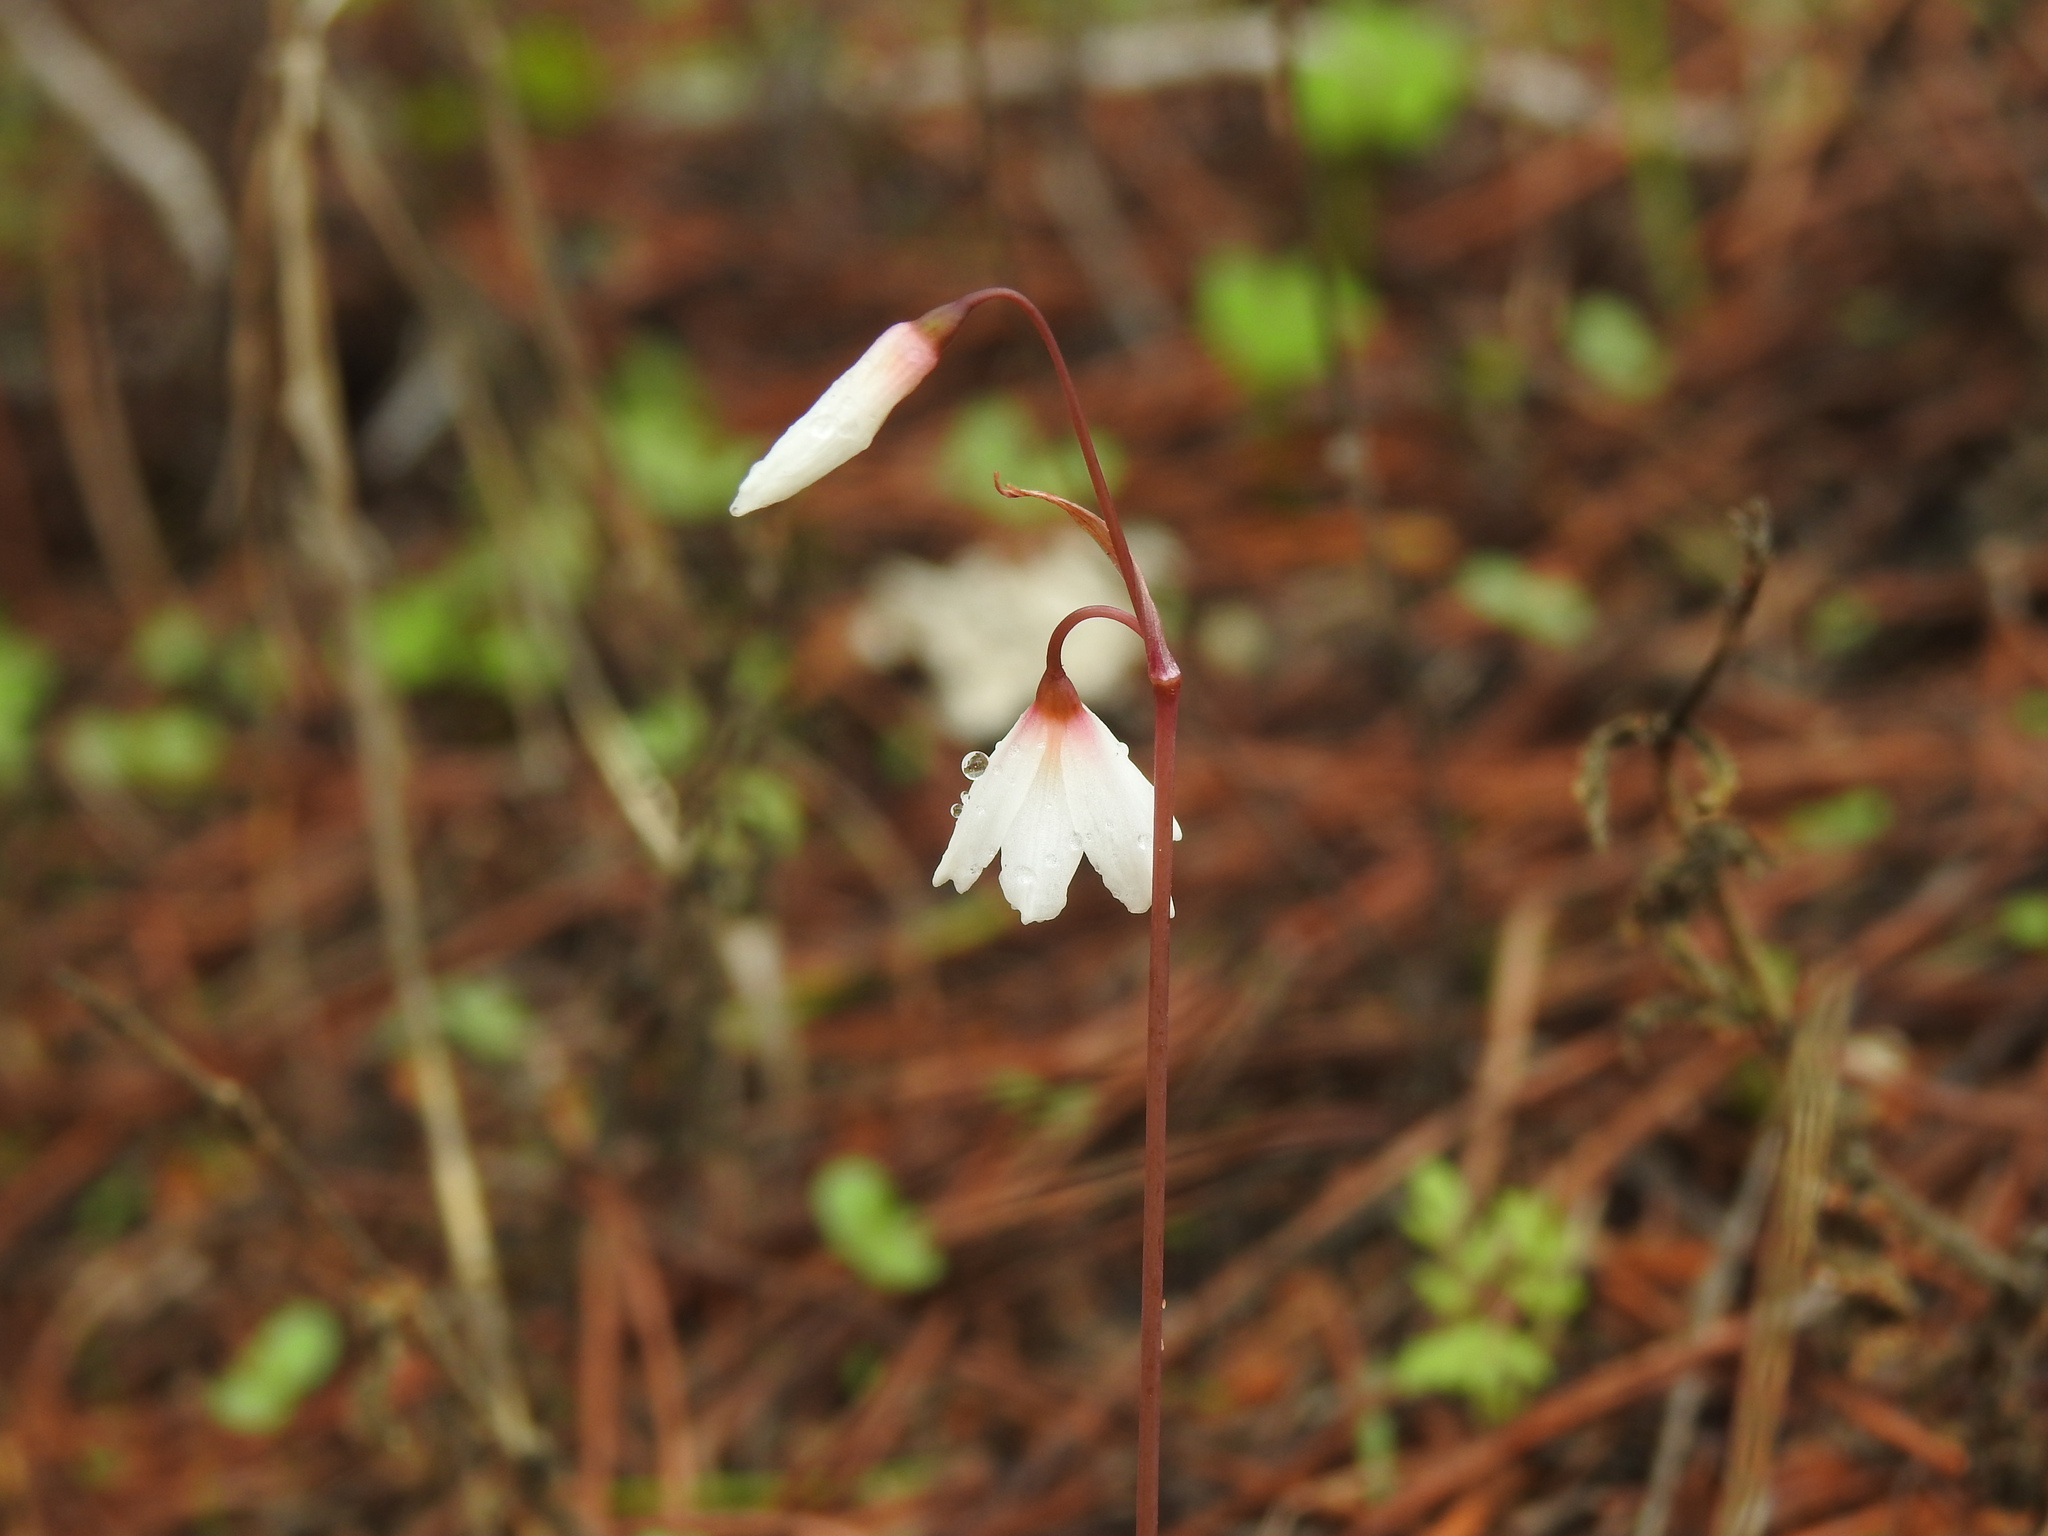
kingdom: Plantae
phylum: Tracheophyta
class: Liliopsida
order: Asparagales
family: Amaryllidaceae
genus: Acis
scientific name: Acis autumnalis
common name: Autumn snowflake
